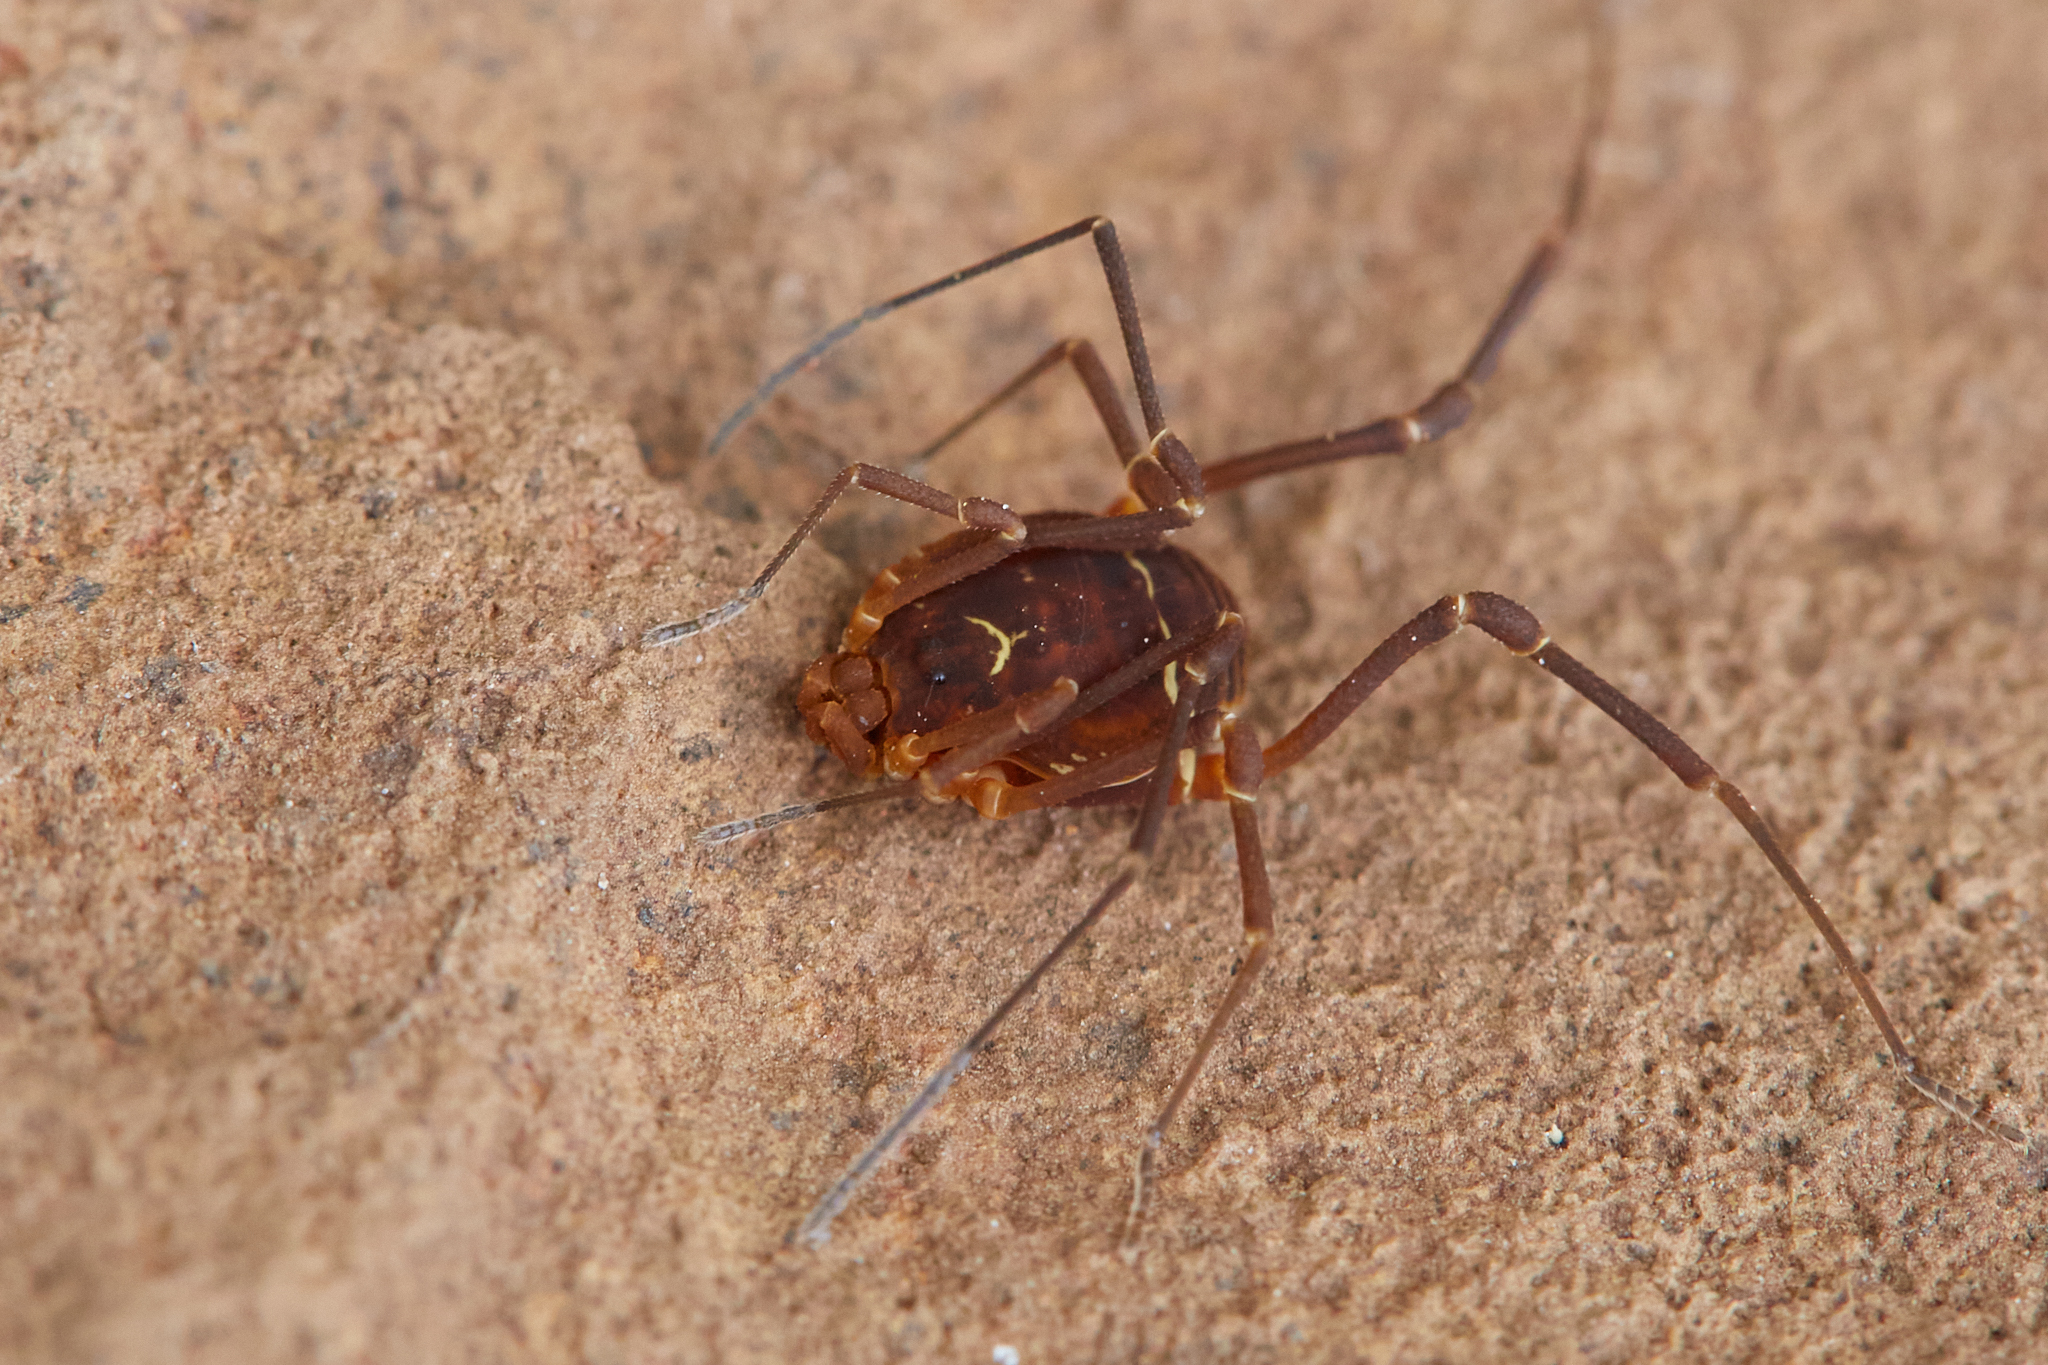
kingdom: Animalia
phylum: Arthropoda
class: Arachnida
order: Opiliones
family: Cosmetidae
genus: Libitioides
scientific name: Libitioides sayi
